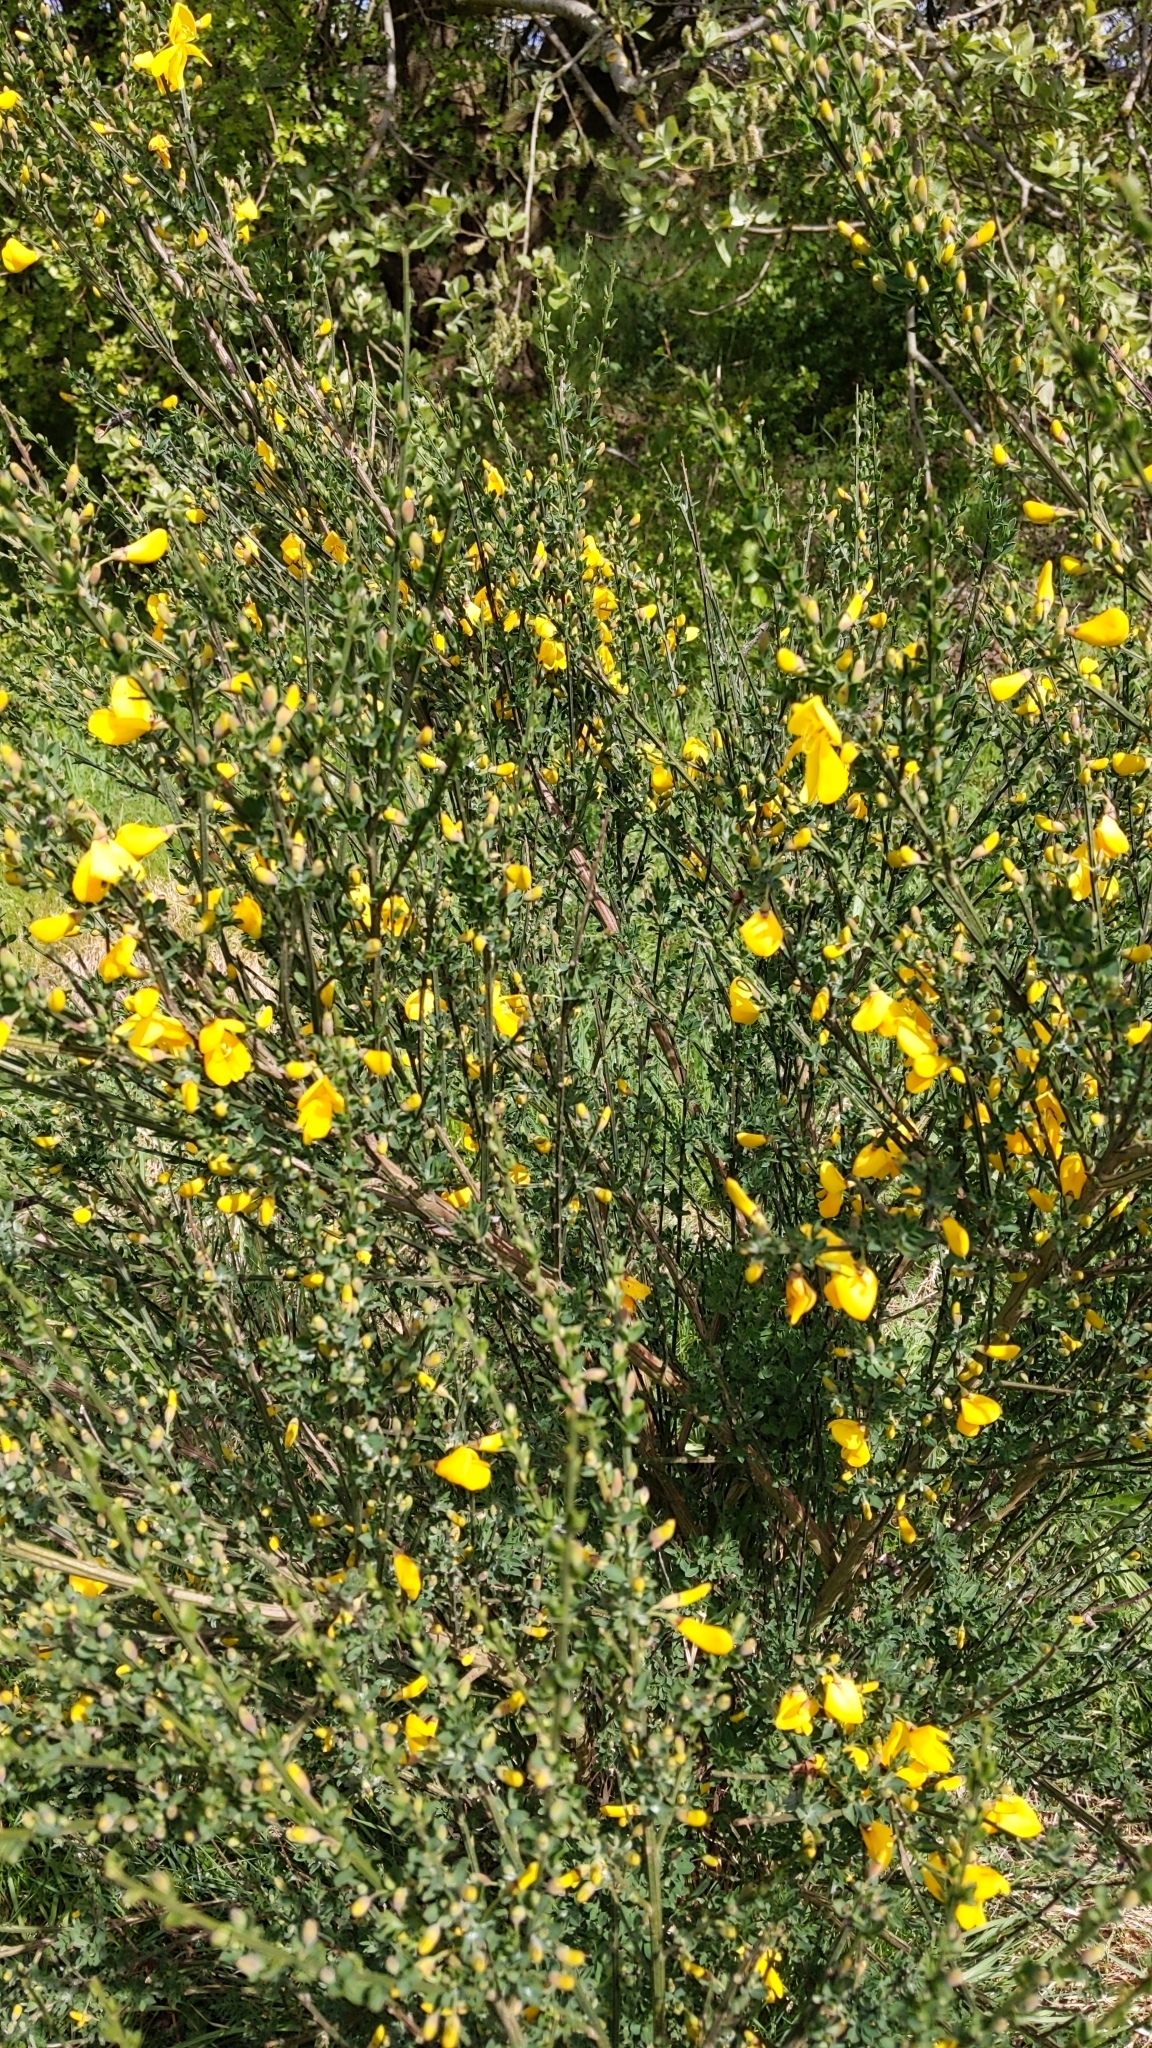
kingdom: Plantae
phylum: Tracheophyta
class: Magnoliopsida
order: Fabales
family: Fabaceae
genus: Cytisus
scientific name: Cytisus scoparius
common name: Scotch broom
